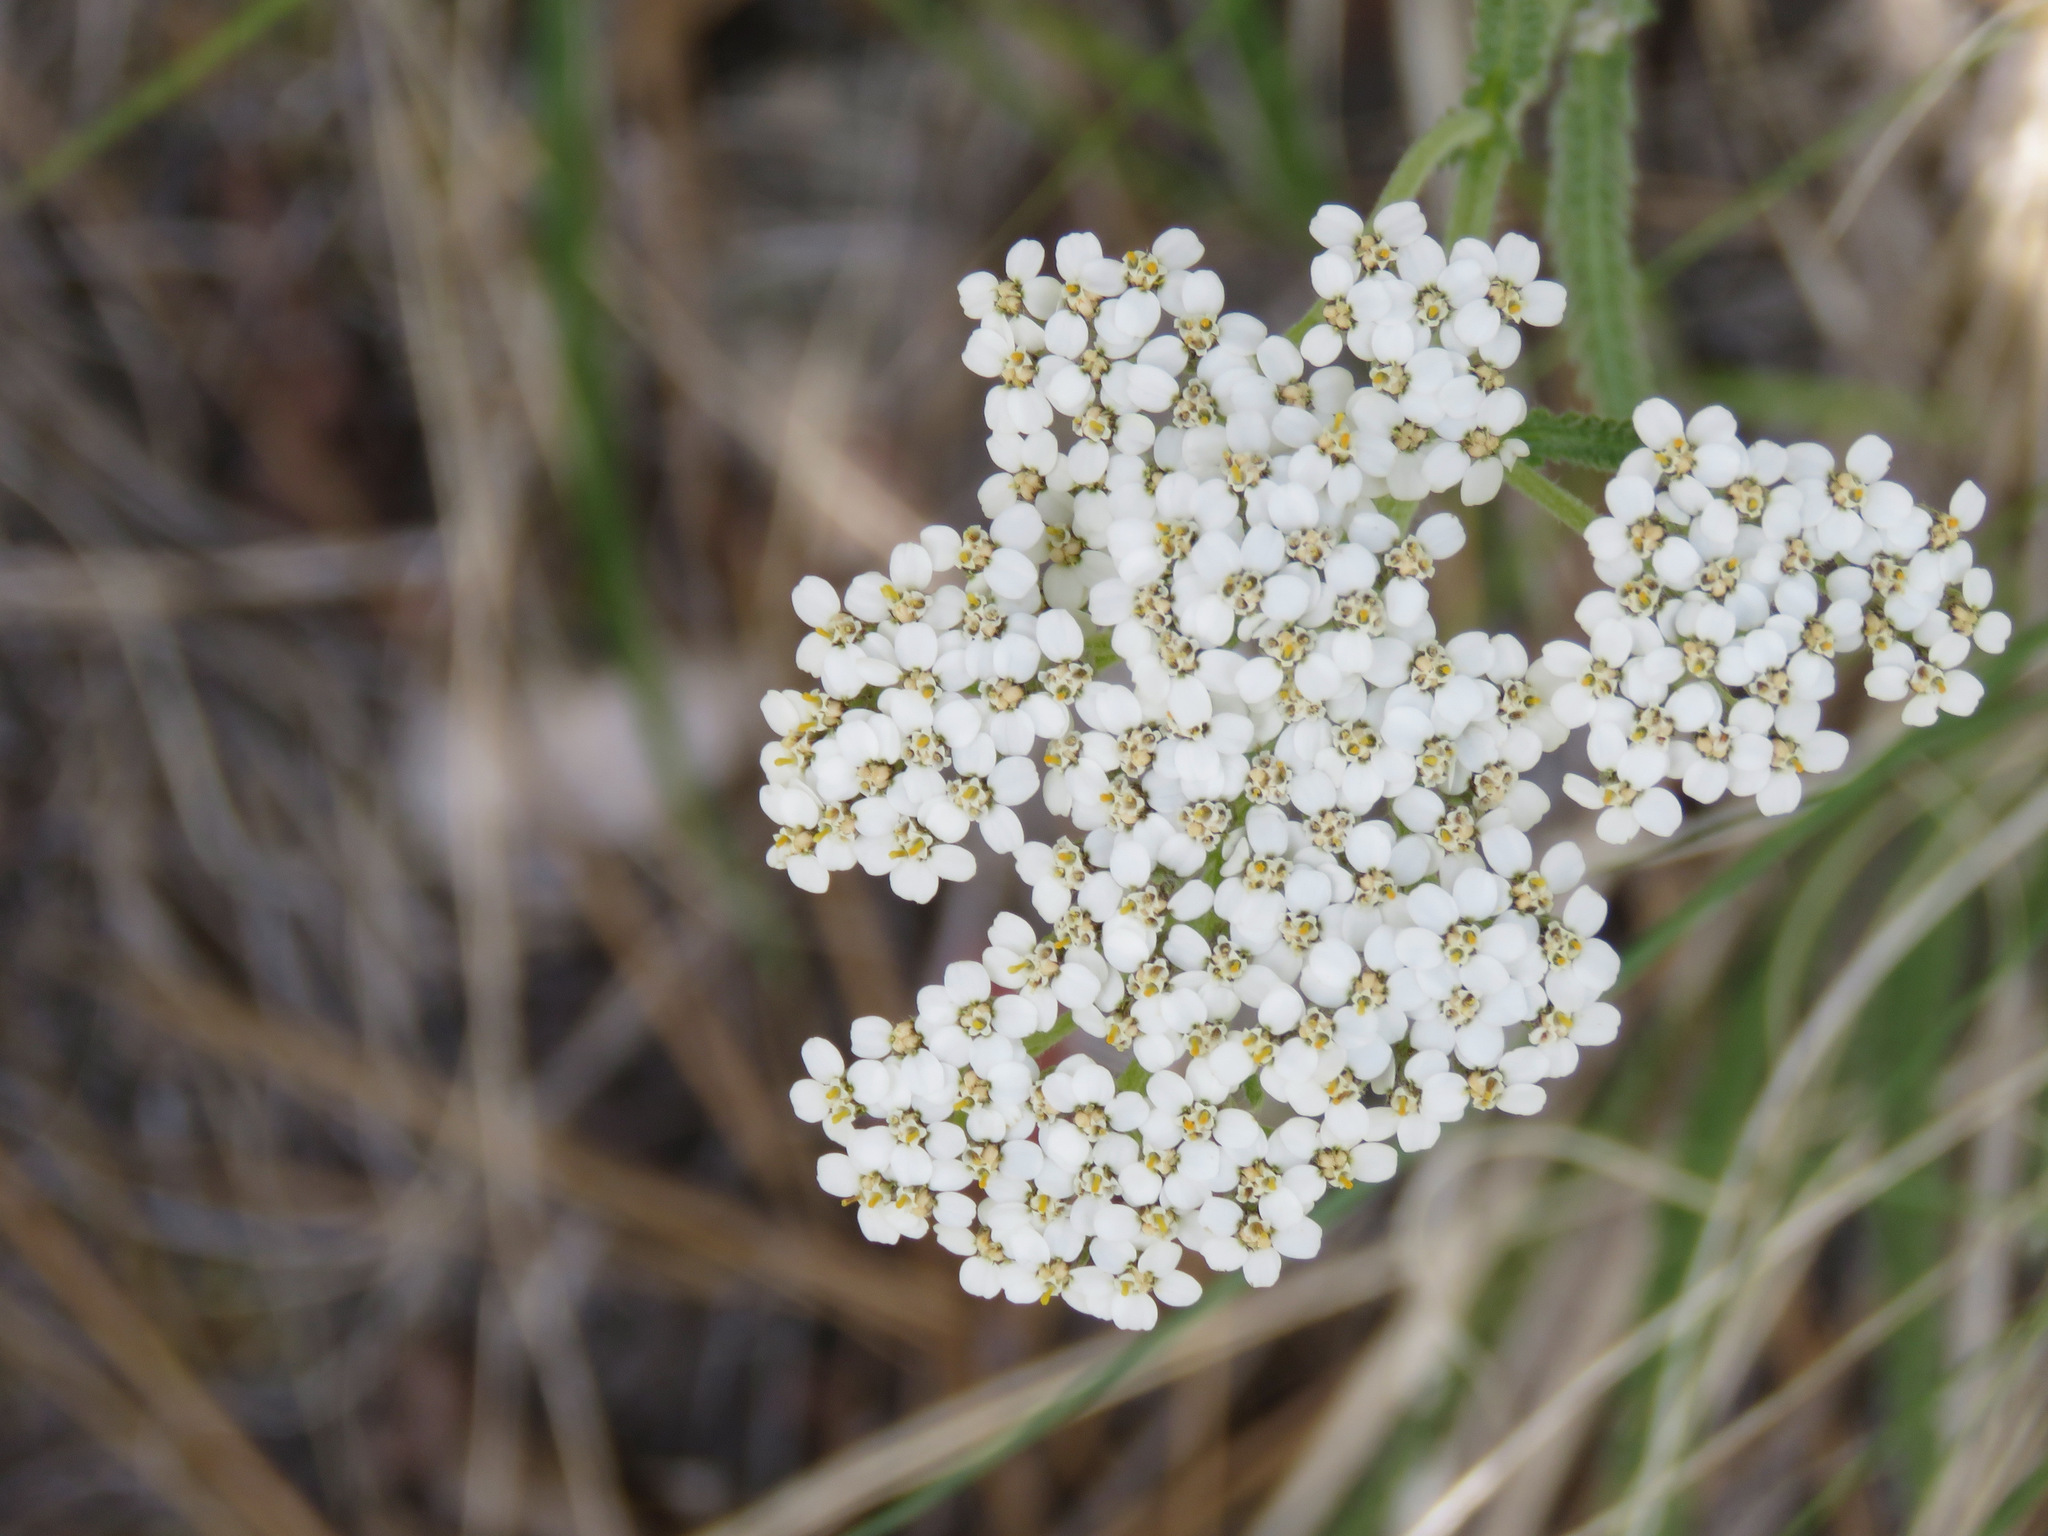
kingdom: Plantae
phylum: Tracheophyta
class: Magnoliopsida
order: Asterales
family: Asteraceae
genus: Achillea
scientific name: Achillea millefolium
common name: Yarrow
